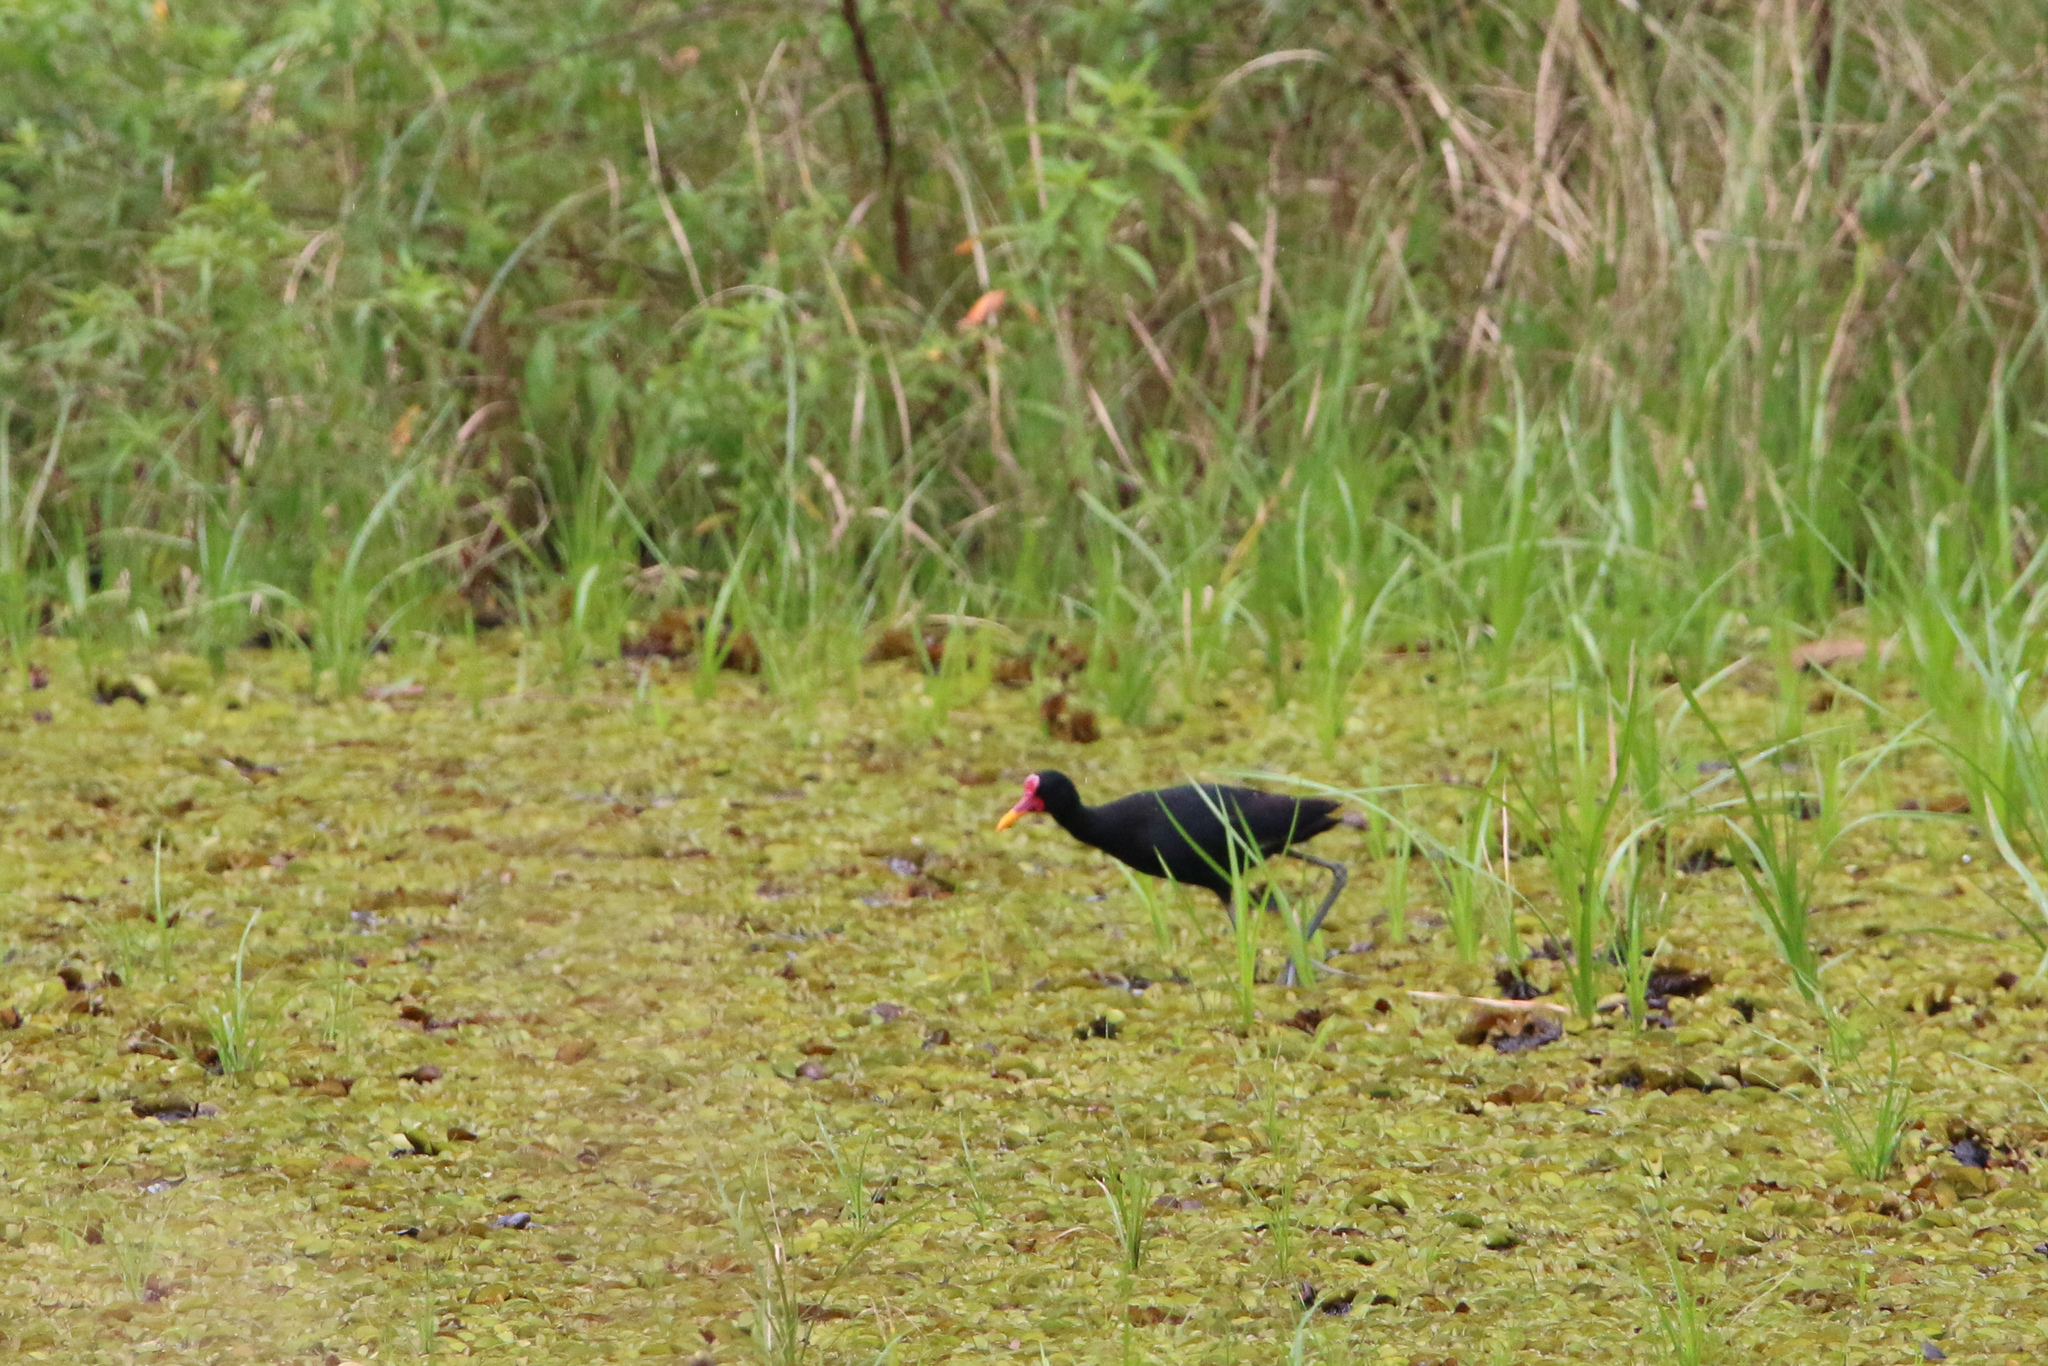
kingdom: Animalia
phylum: Chordata
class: Aves
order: Charadriiformes
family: Jacanidae
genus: Jacana
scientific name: Jacana jacana
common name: Wattled jacana
